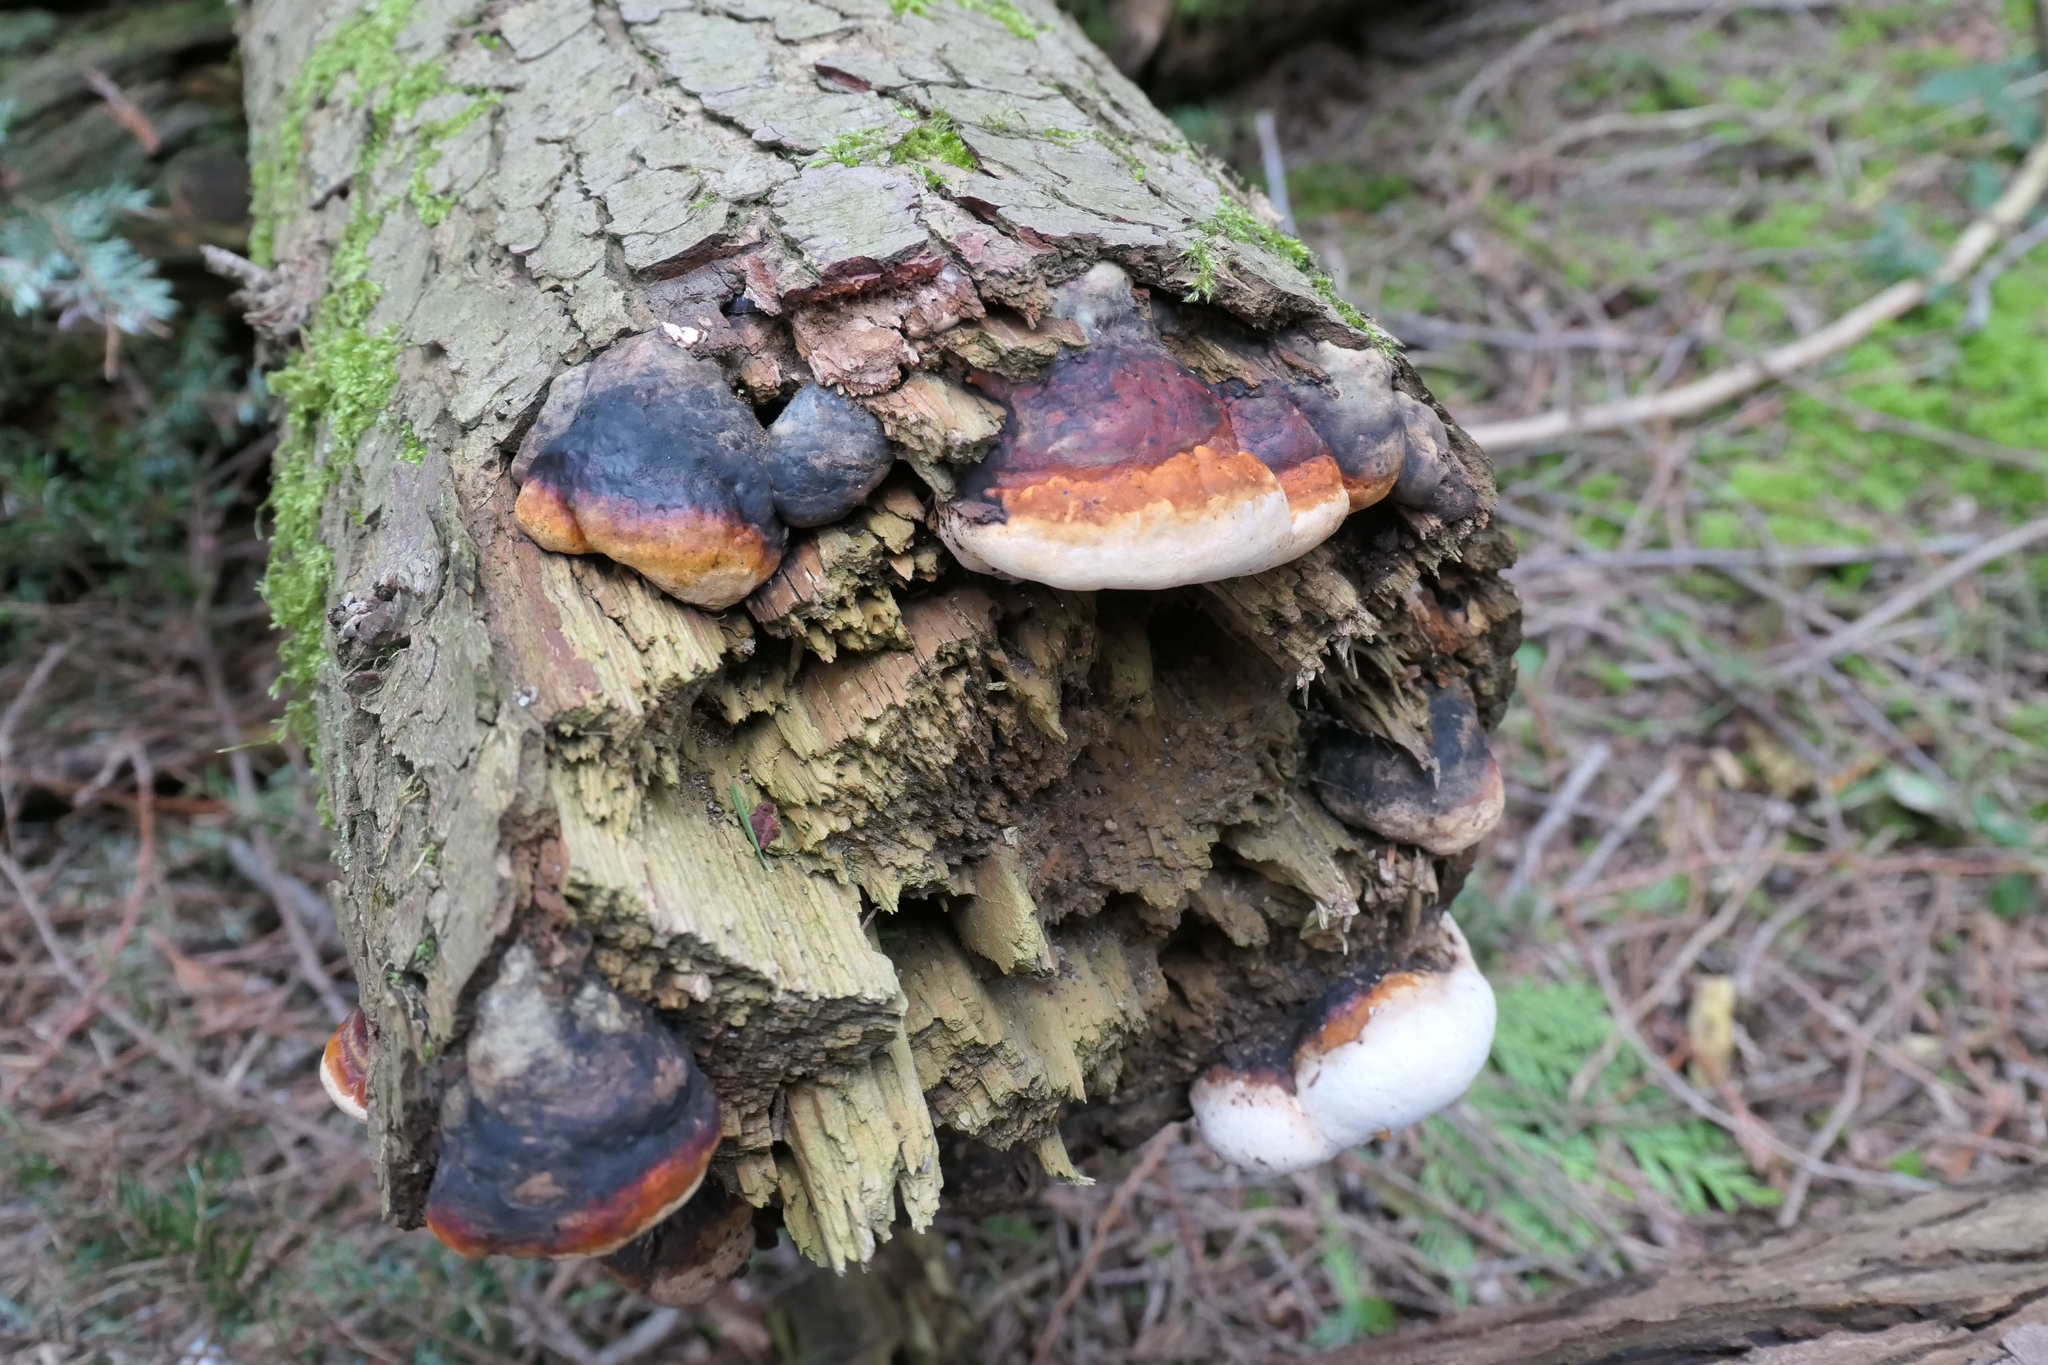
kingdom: Fungi
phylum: Basidiomycota
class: Agaricomycetes
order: Polyporales
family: Fomitopsidaceae
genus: Fomitopsis
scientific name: Fomitopsis mounceae
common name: Northern red belt
